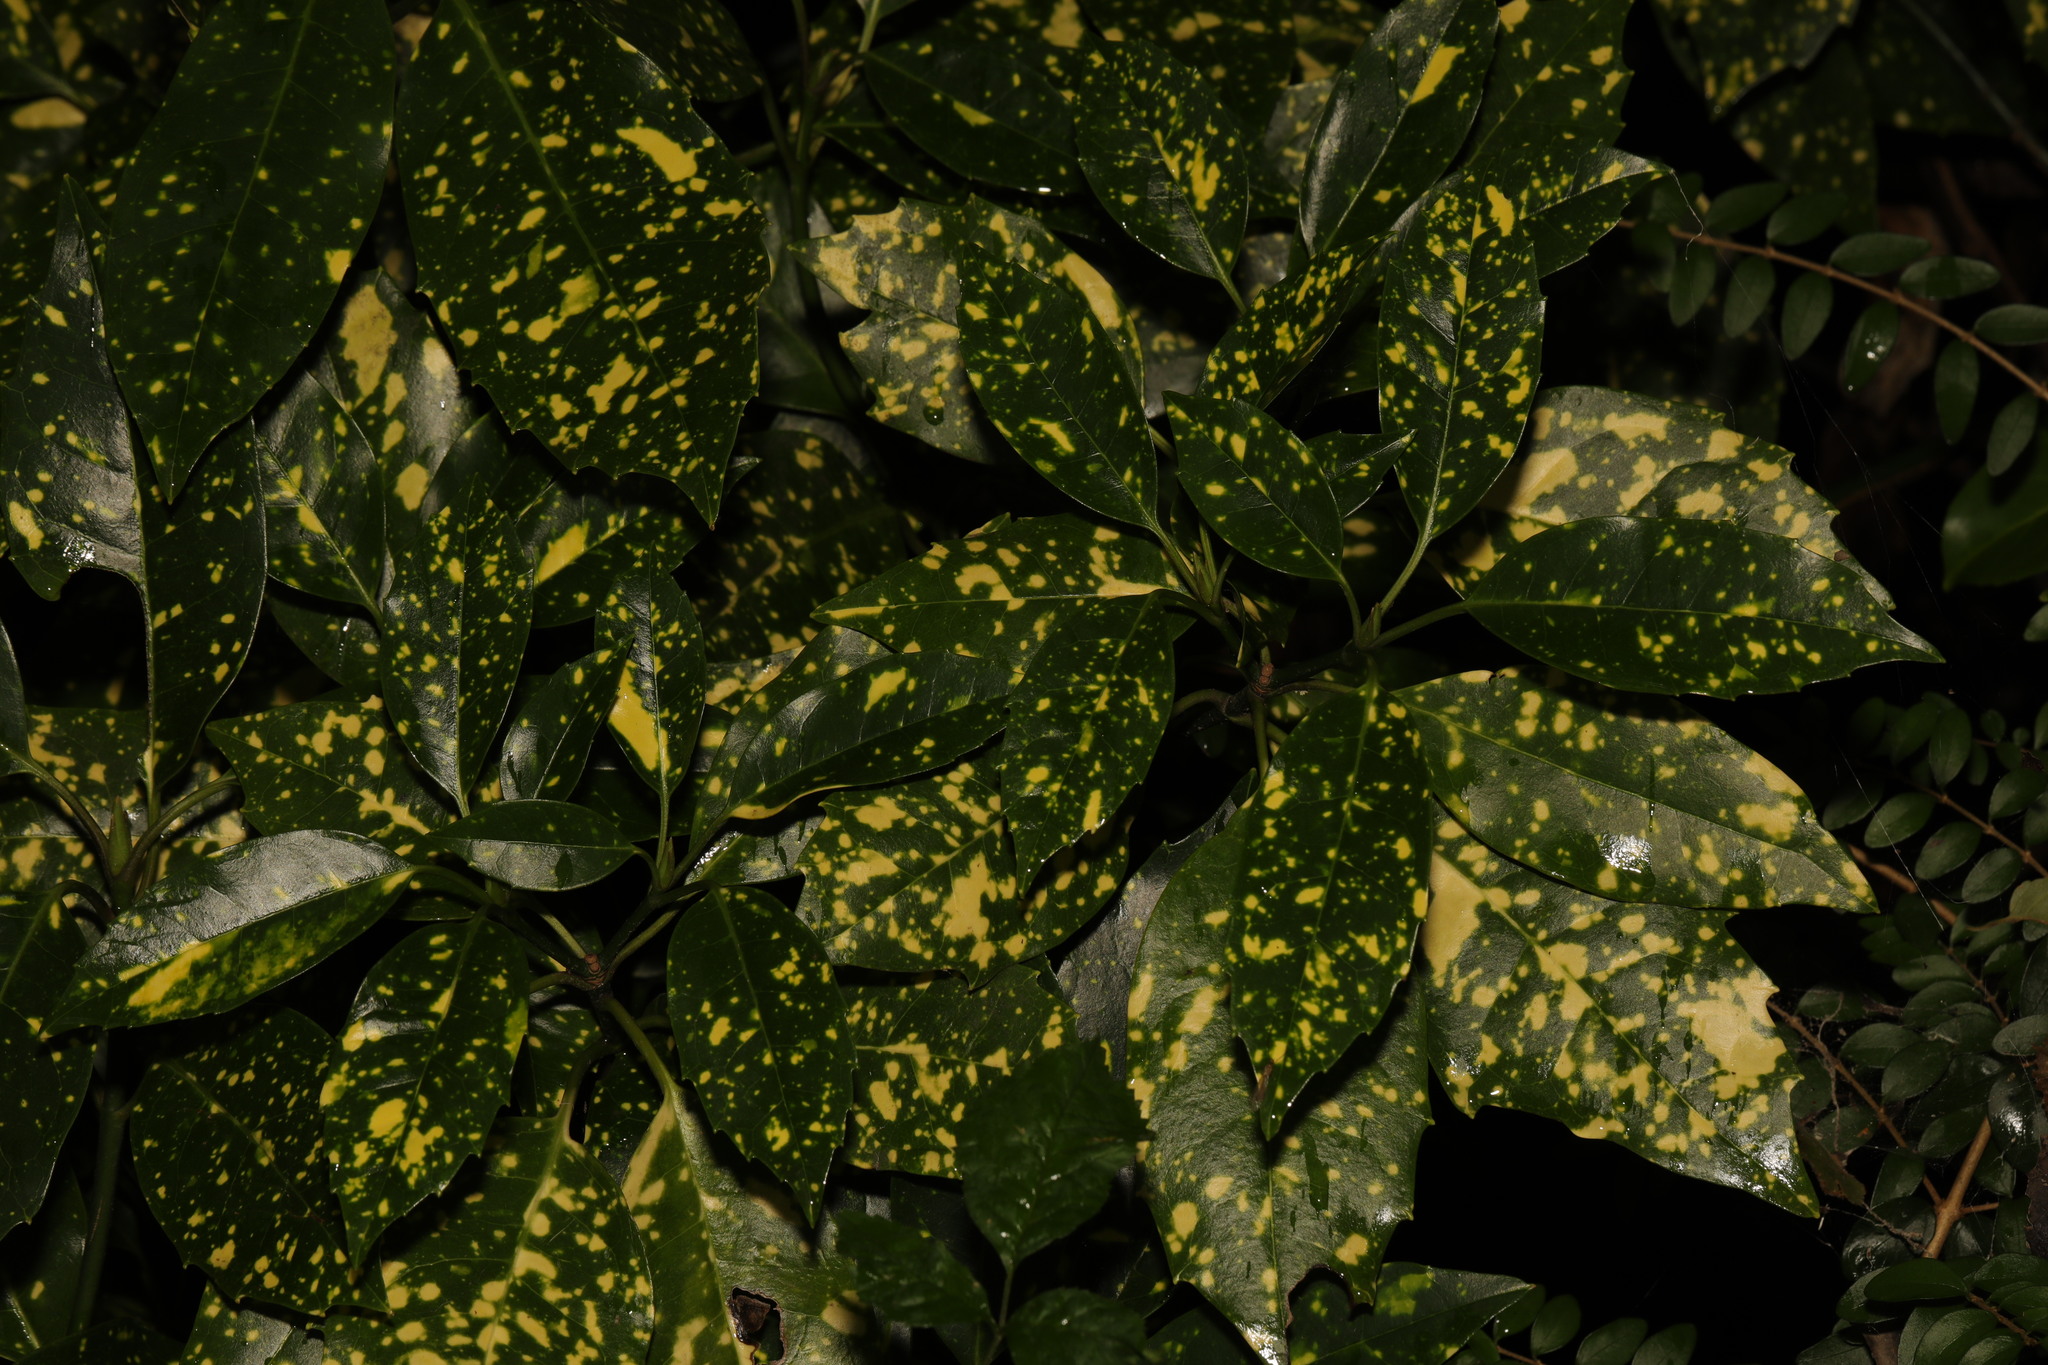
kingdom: Plantae
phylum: Tracheophyta
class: Magnoliopsida
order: Garryales
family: Garryaceae
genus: Aucuba
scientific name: Aucuba japonica
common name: Spotted-laurel
